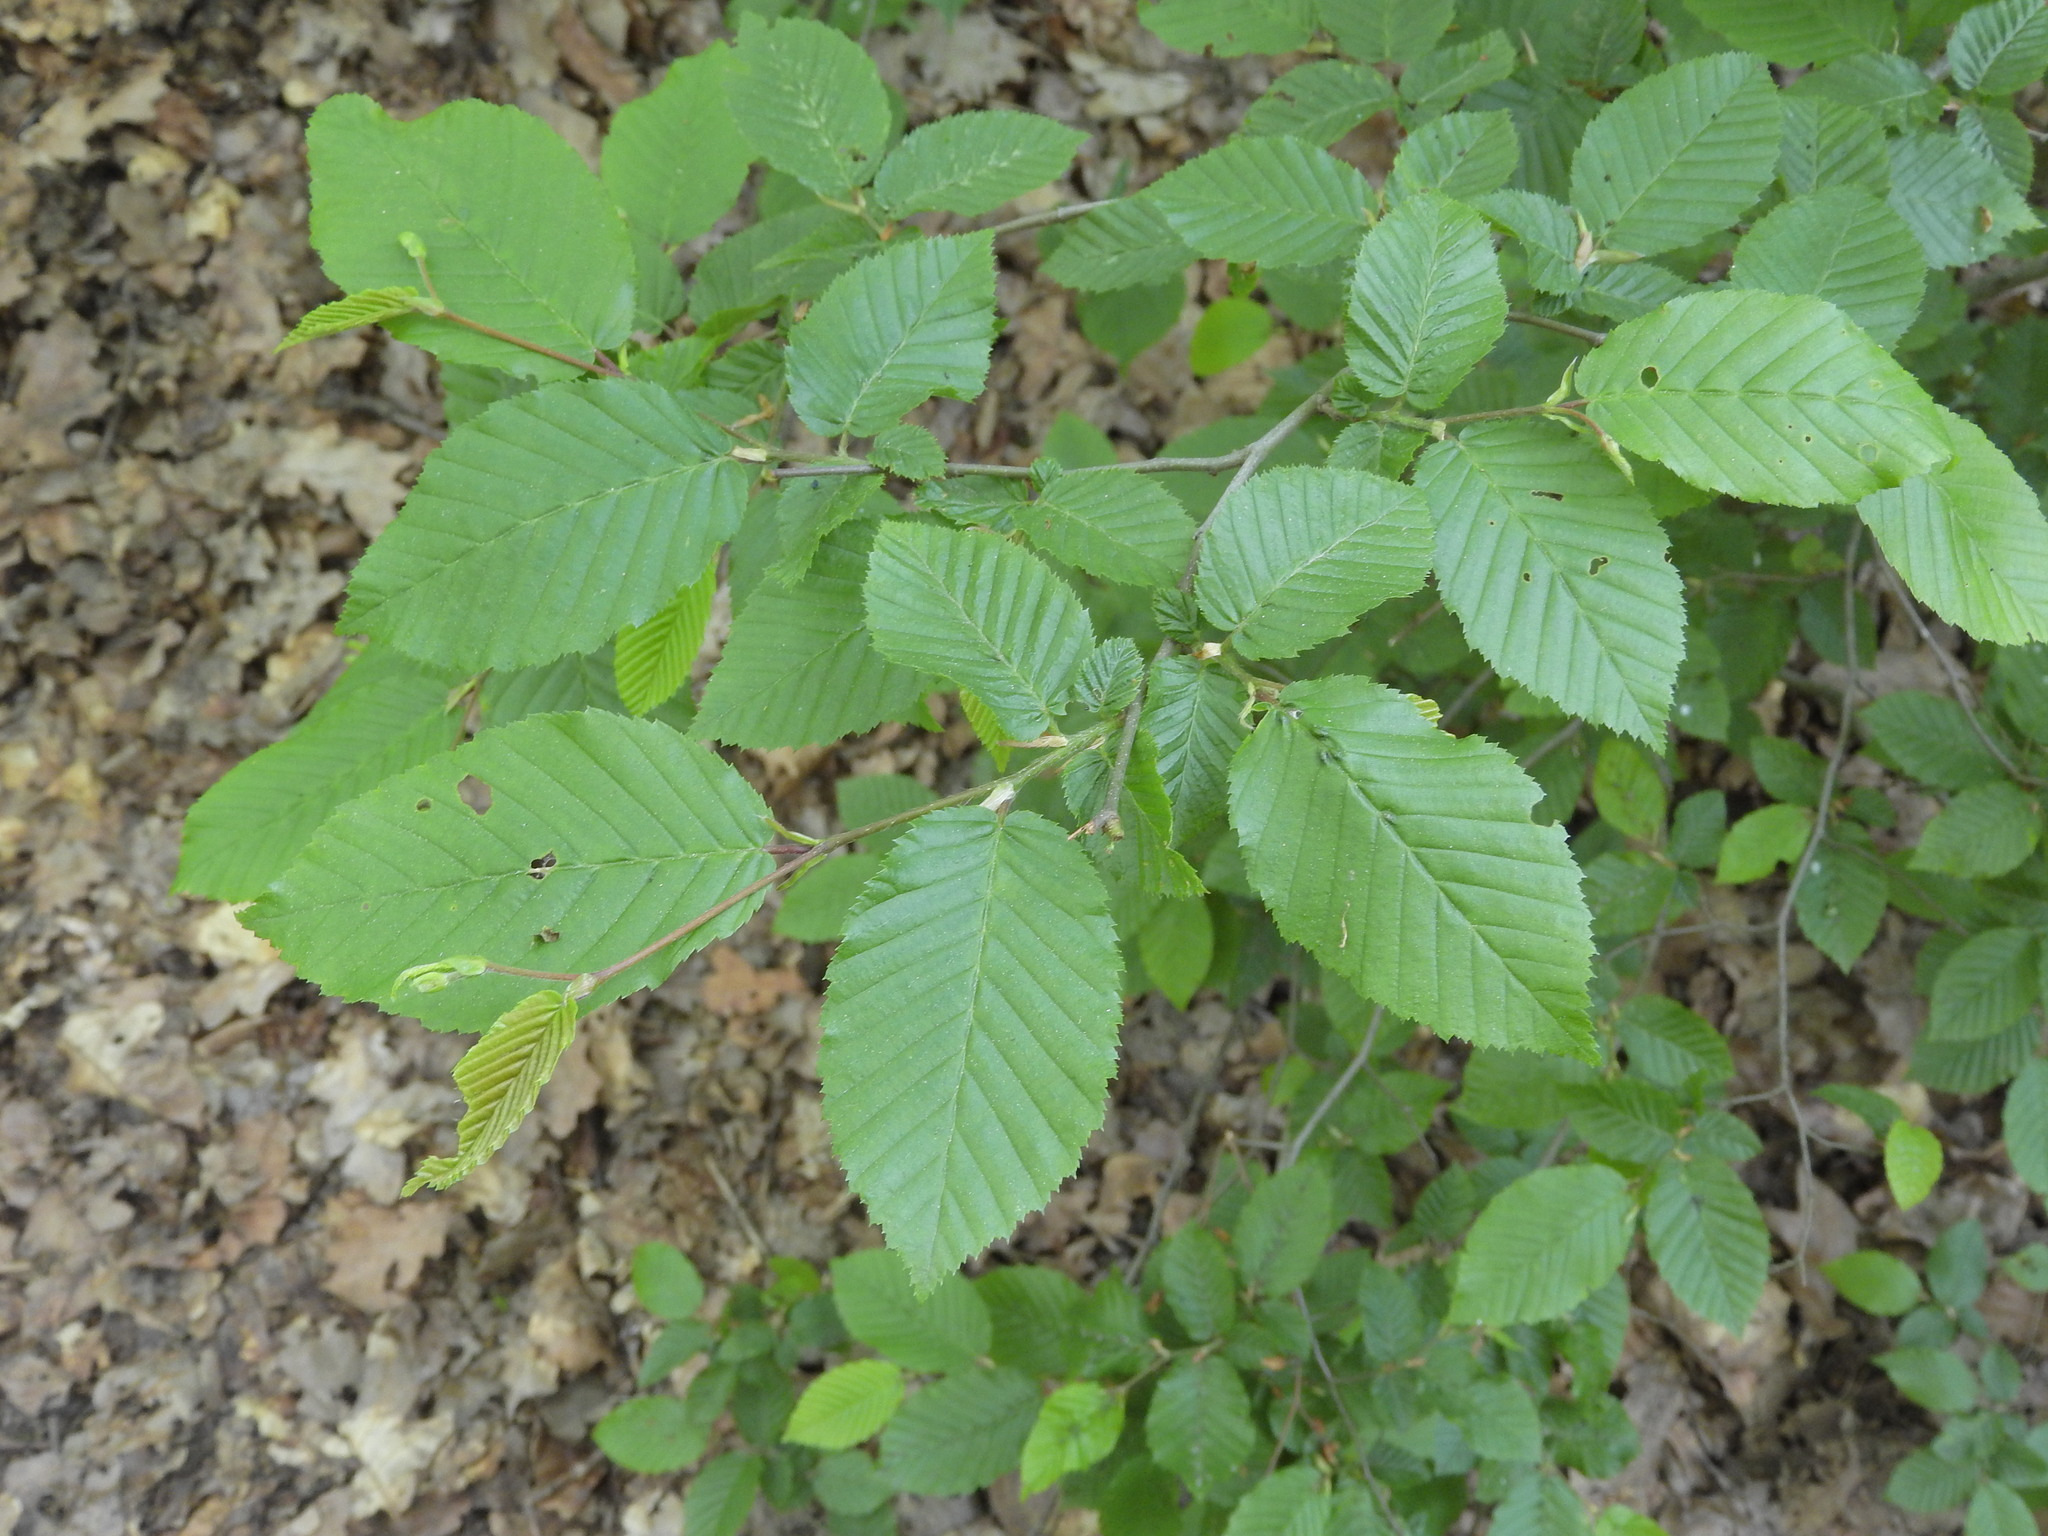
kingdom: Plantae
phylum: Tracheophyta
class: Magnoliopsida
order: Fagales
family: Betulaceae
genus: Carpinus
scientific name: Carpinus betulus
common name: Hornbeam
